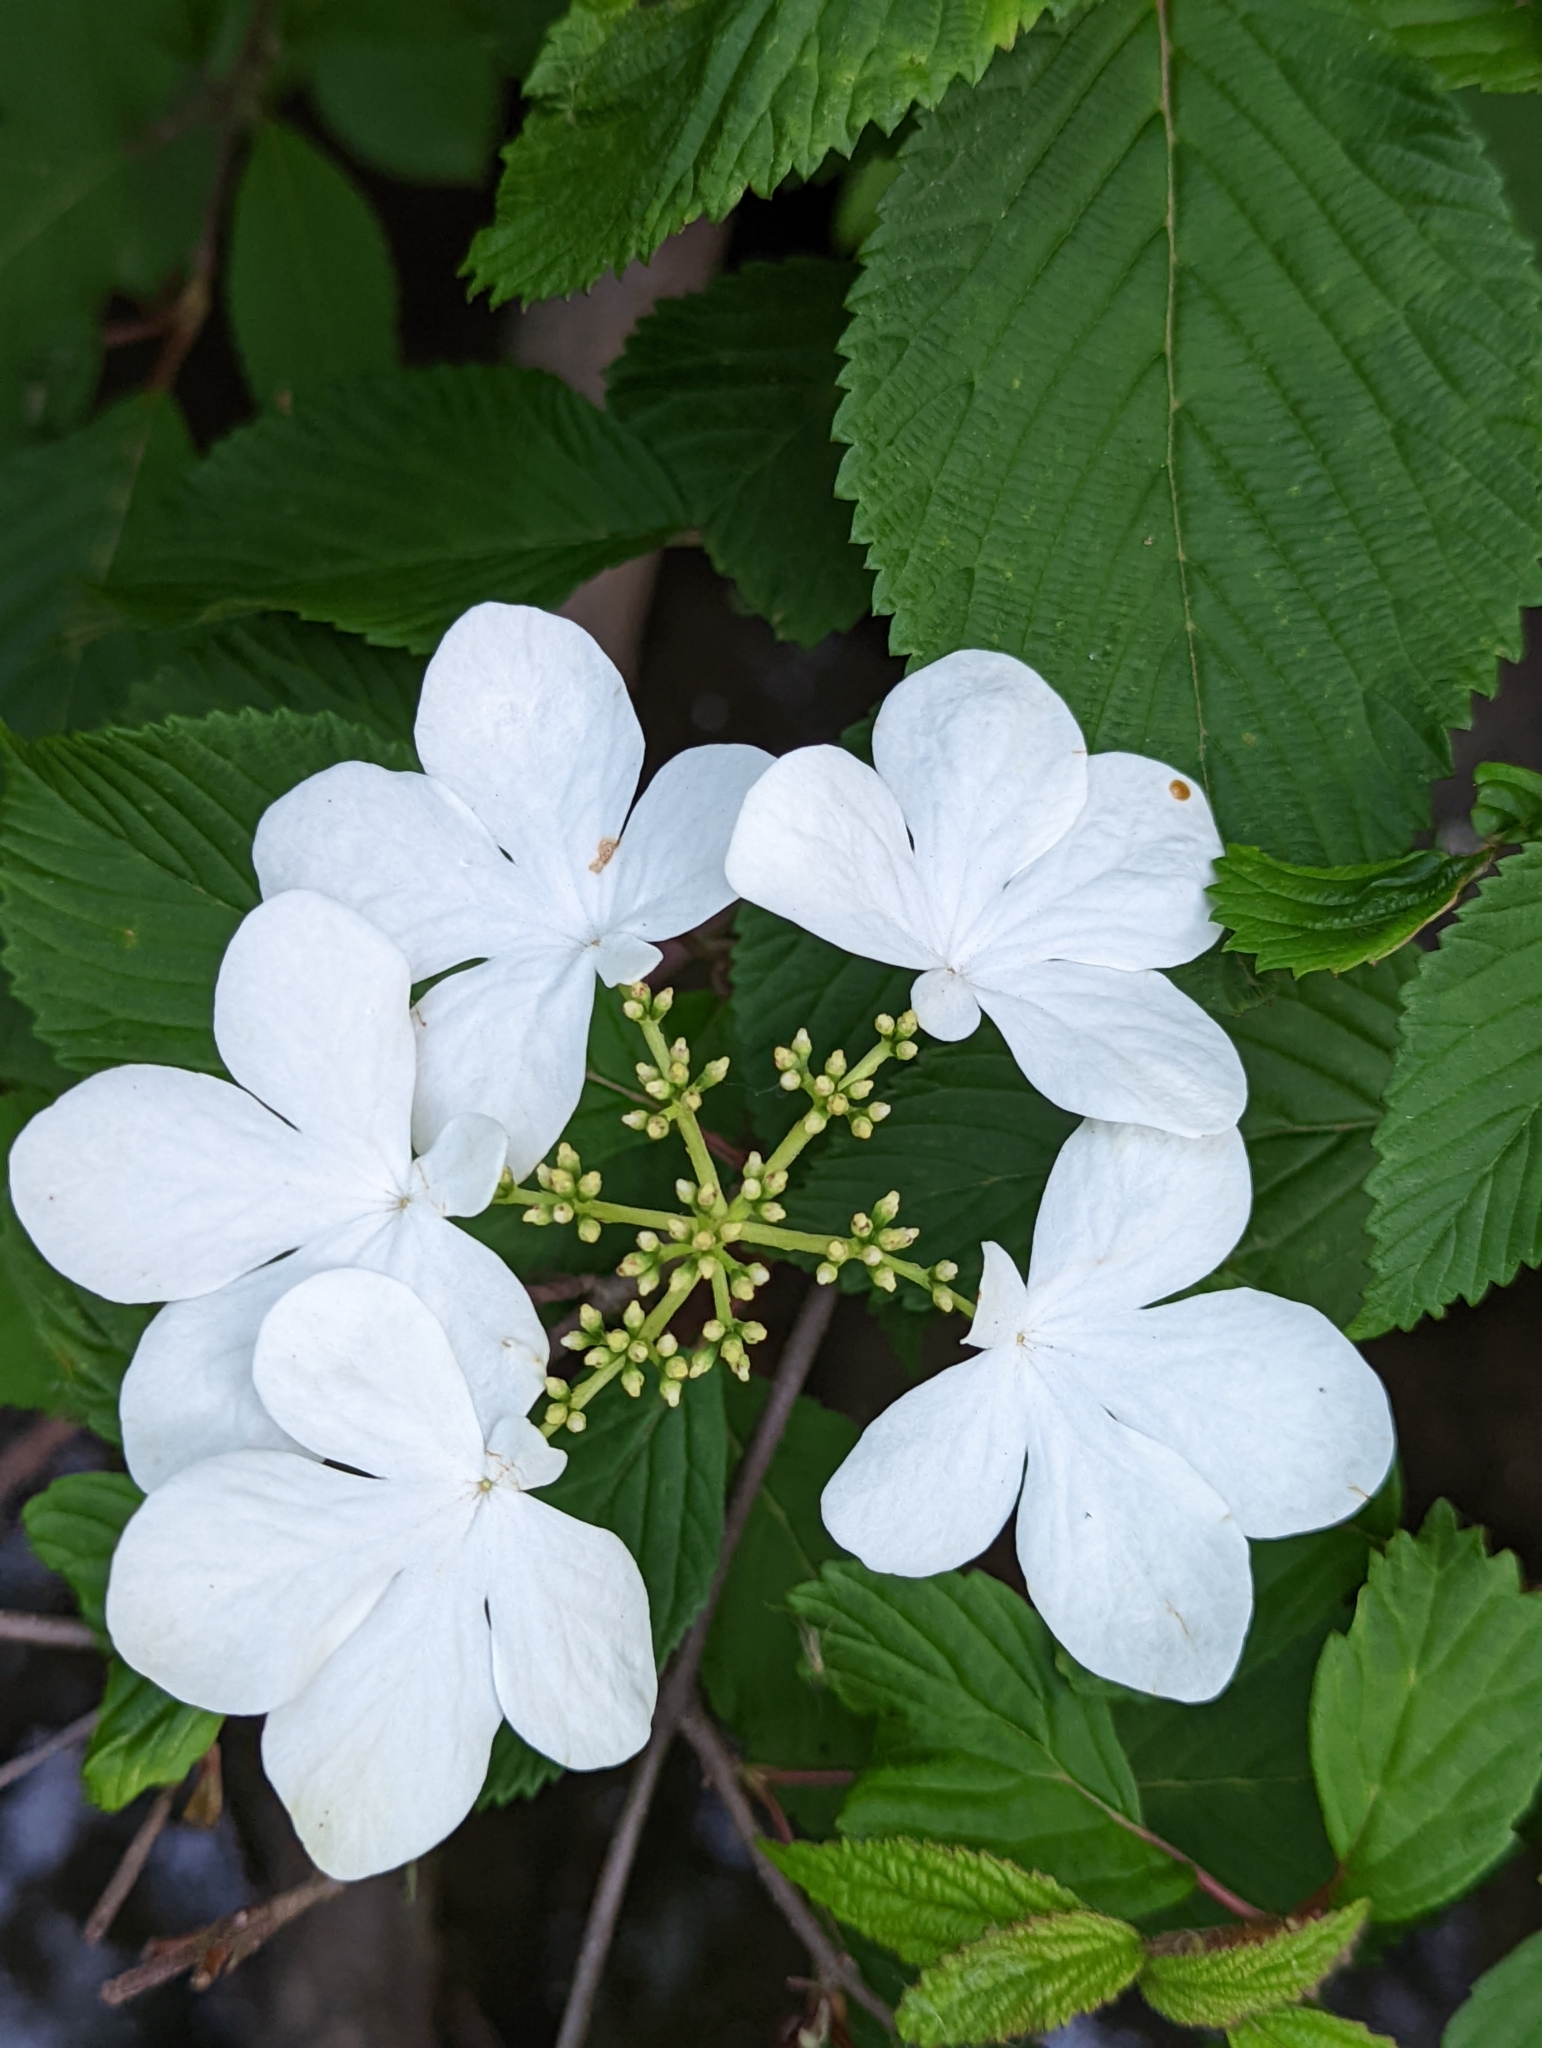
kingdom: Plantae
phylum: Tracheophyta
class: Magnoliopsida
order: Dipsacales
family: Viburnaceae
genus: Viburnum
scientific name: Viburnum plicatum
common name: Japanese snowball
